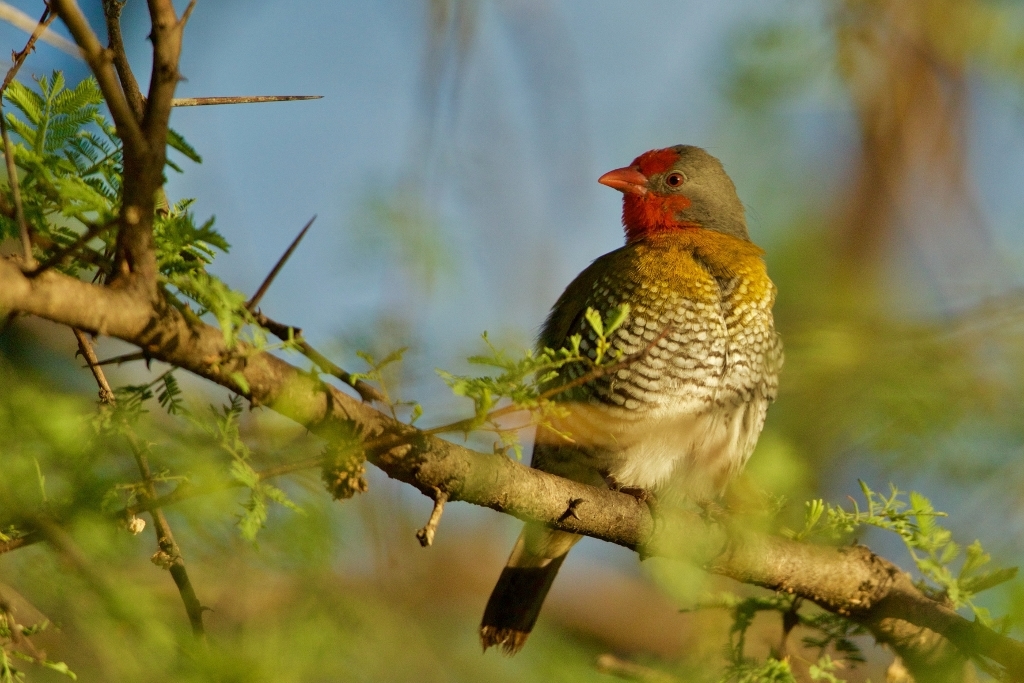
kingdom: Animalia
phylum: Chordata
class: Aves
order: Passeriformes
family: Estrildidae
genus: Pytilia
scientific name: Pytilia melba
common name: Green-winged pytilia
